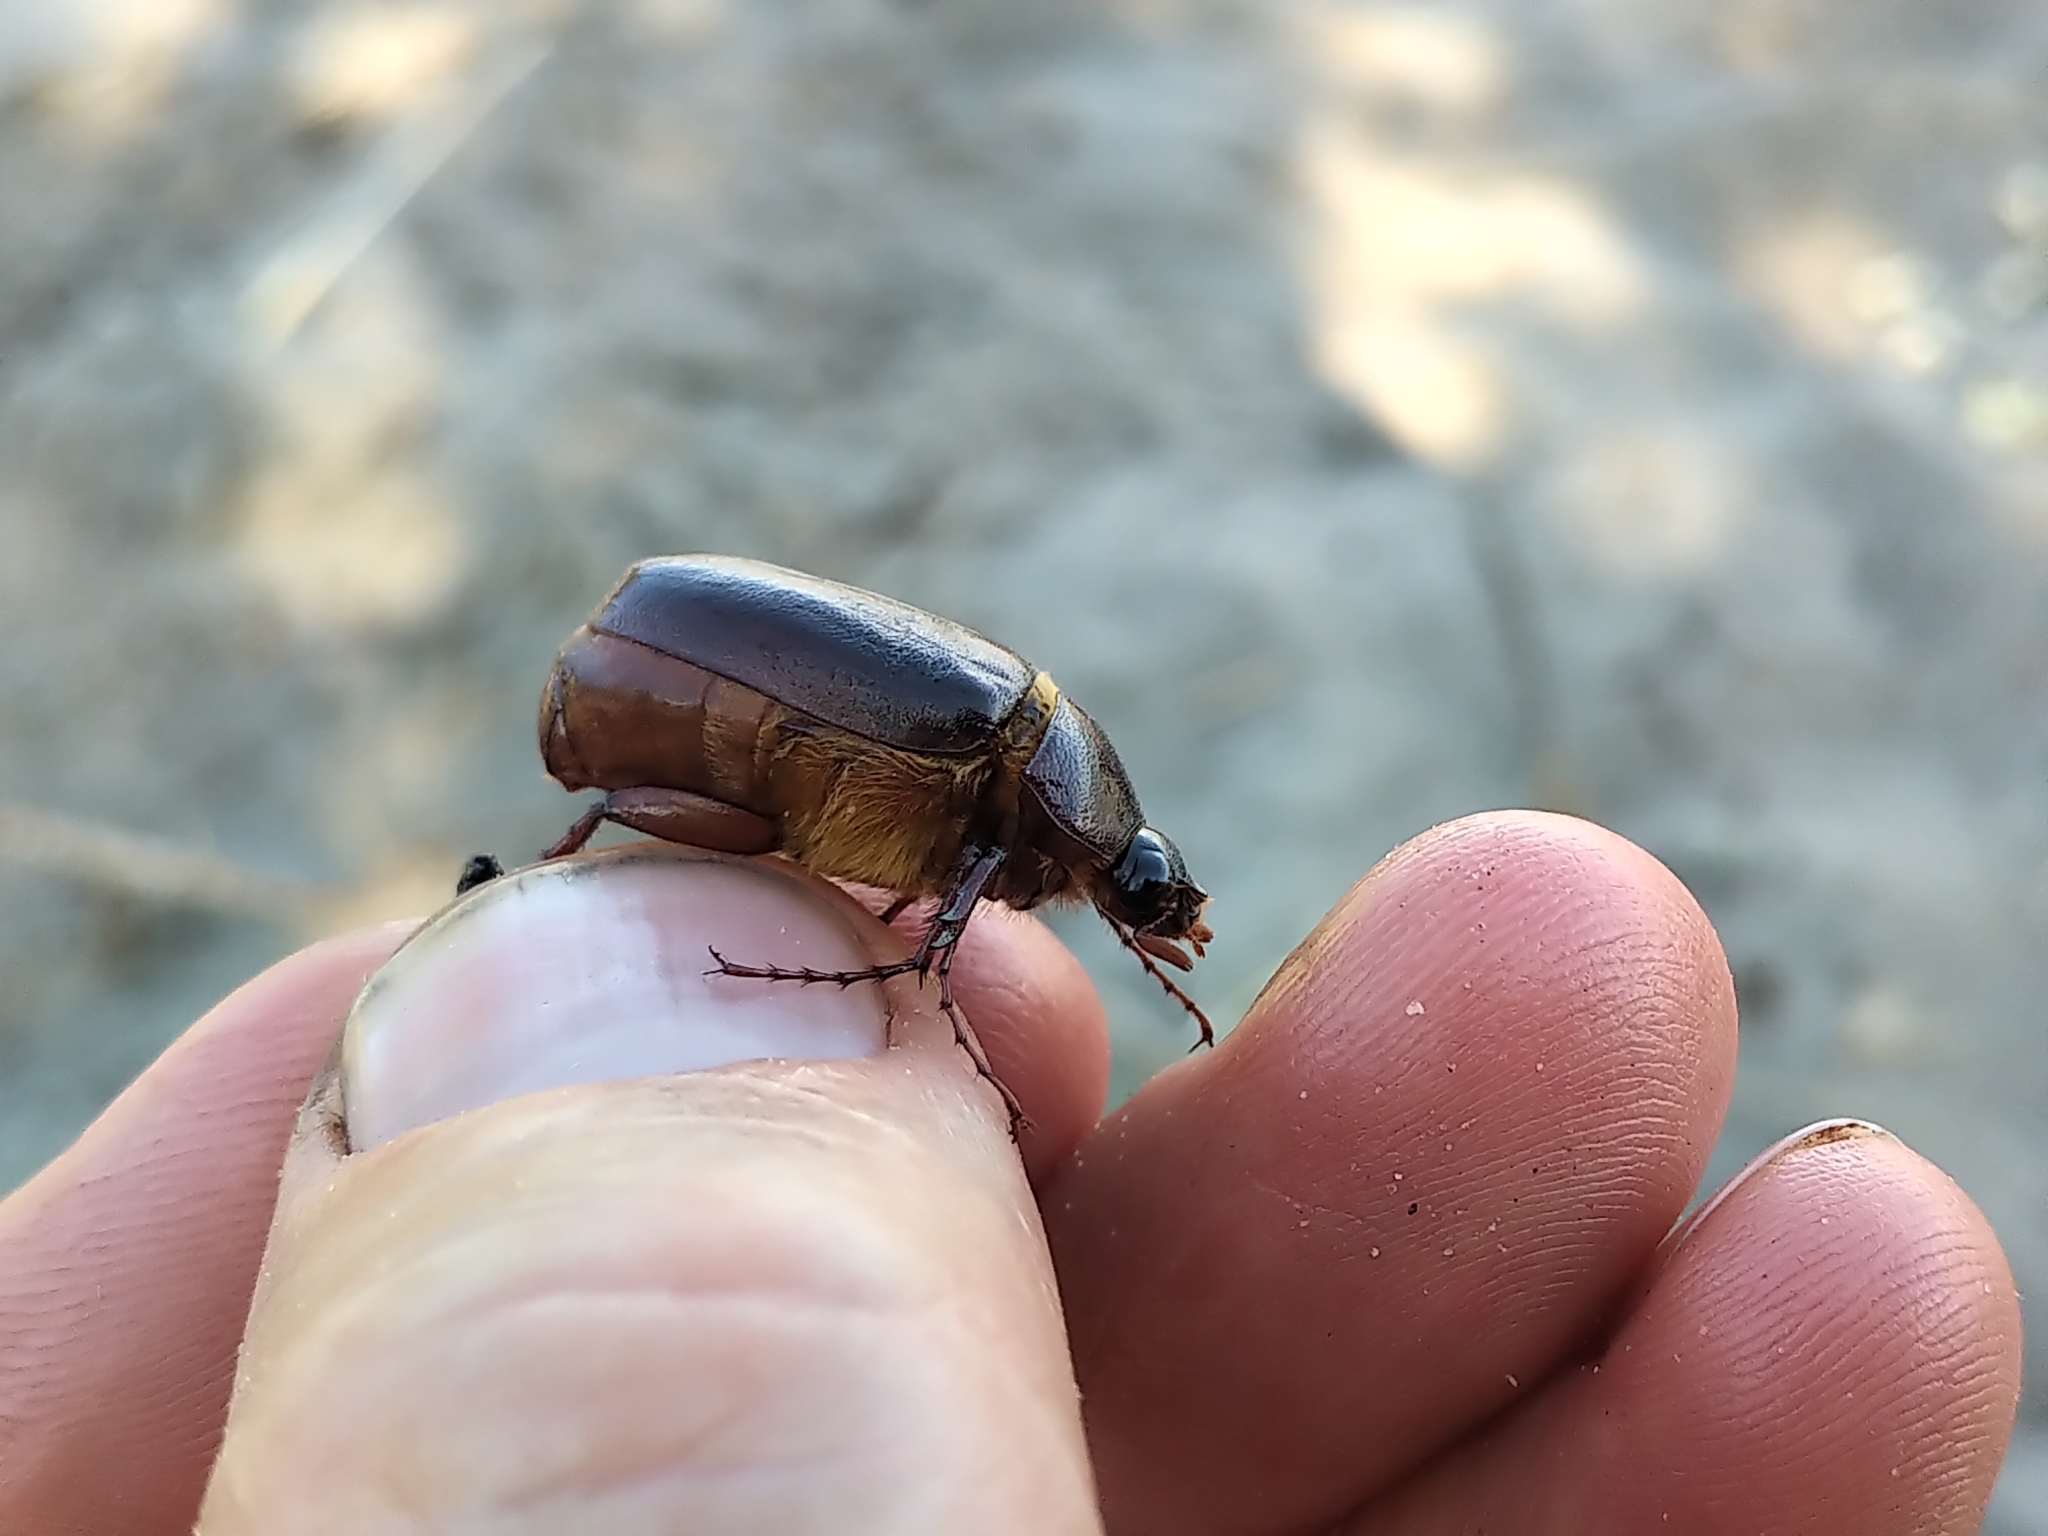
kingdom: Animalia
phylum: Arthropoda
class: Insecta
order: Coleoptera
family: Scarabaeidae
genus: Phyllophaga
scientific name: Phyllophaga anxia
